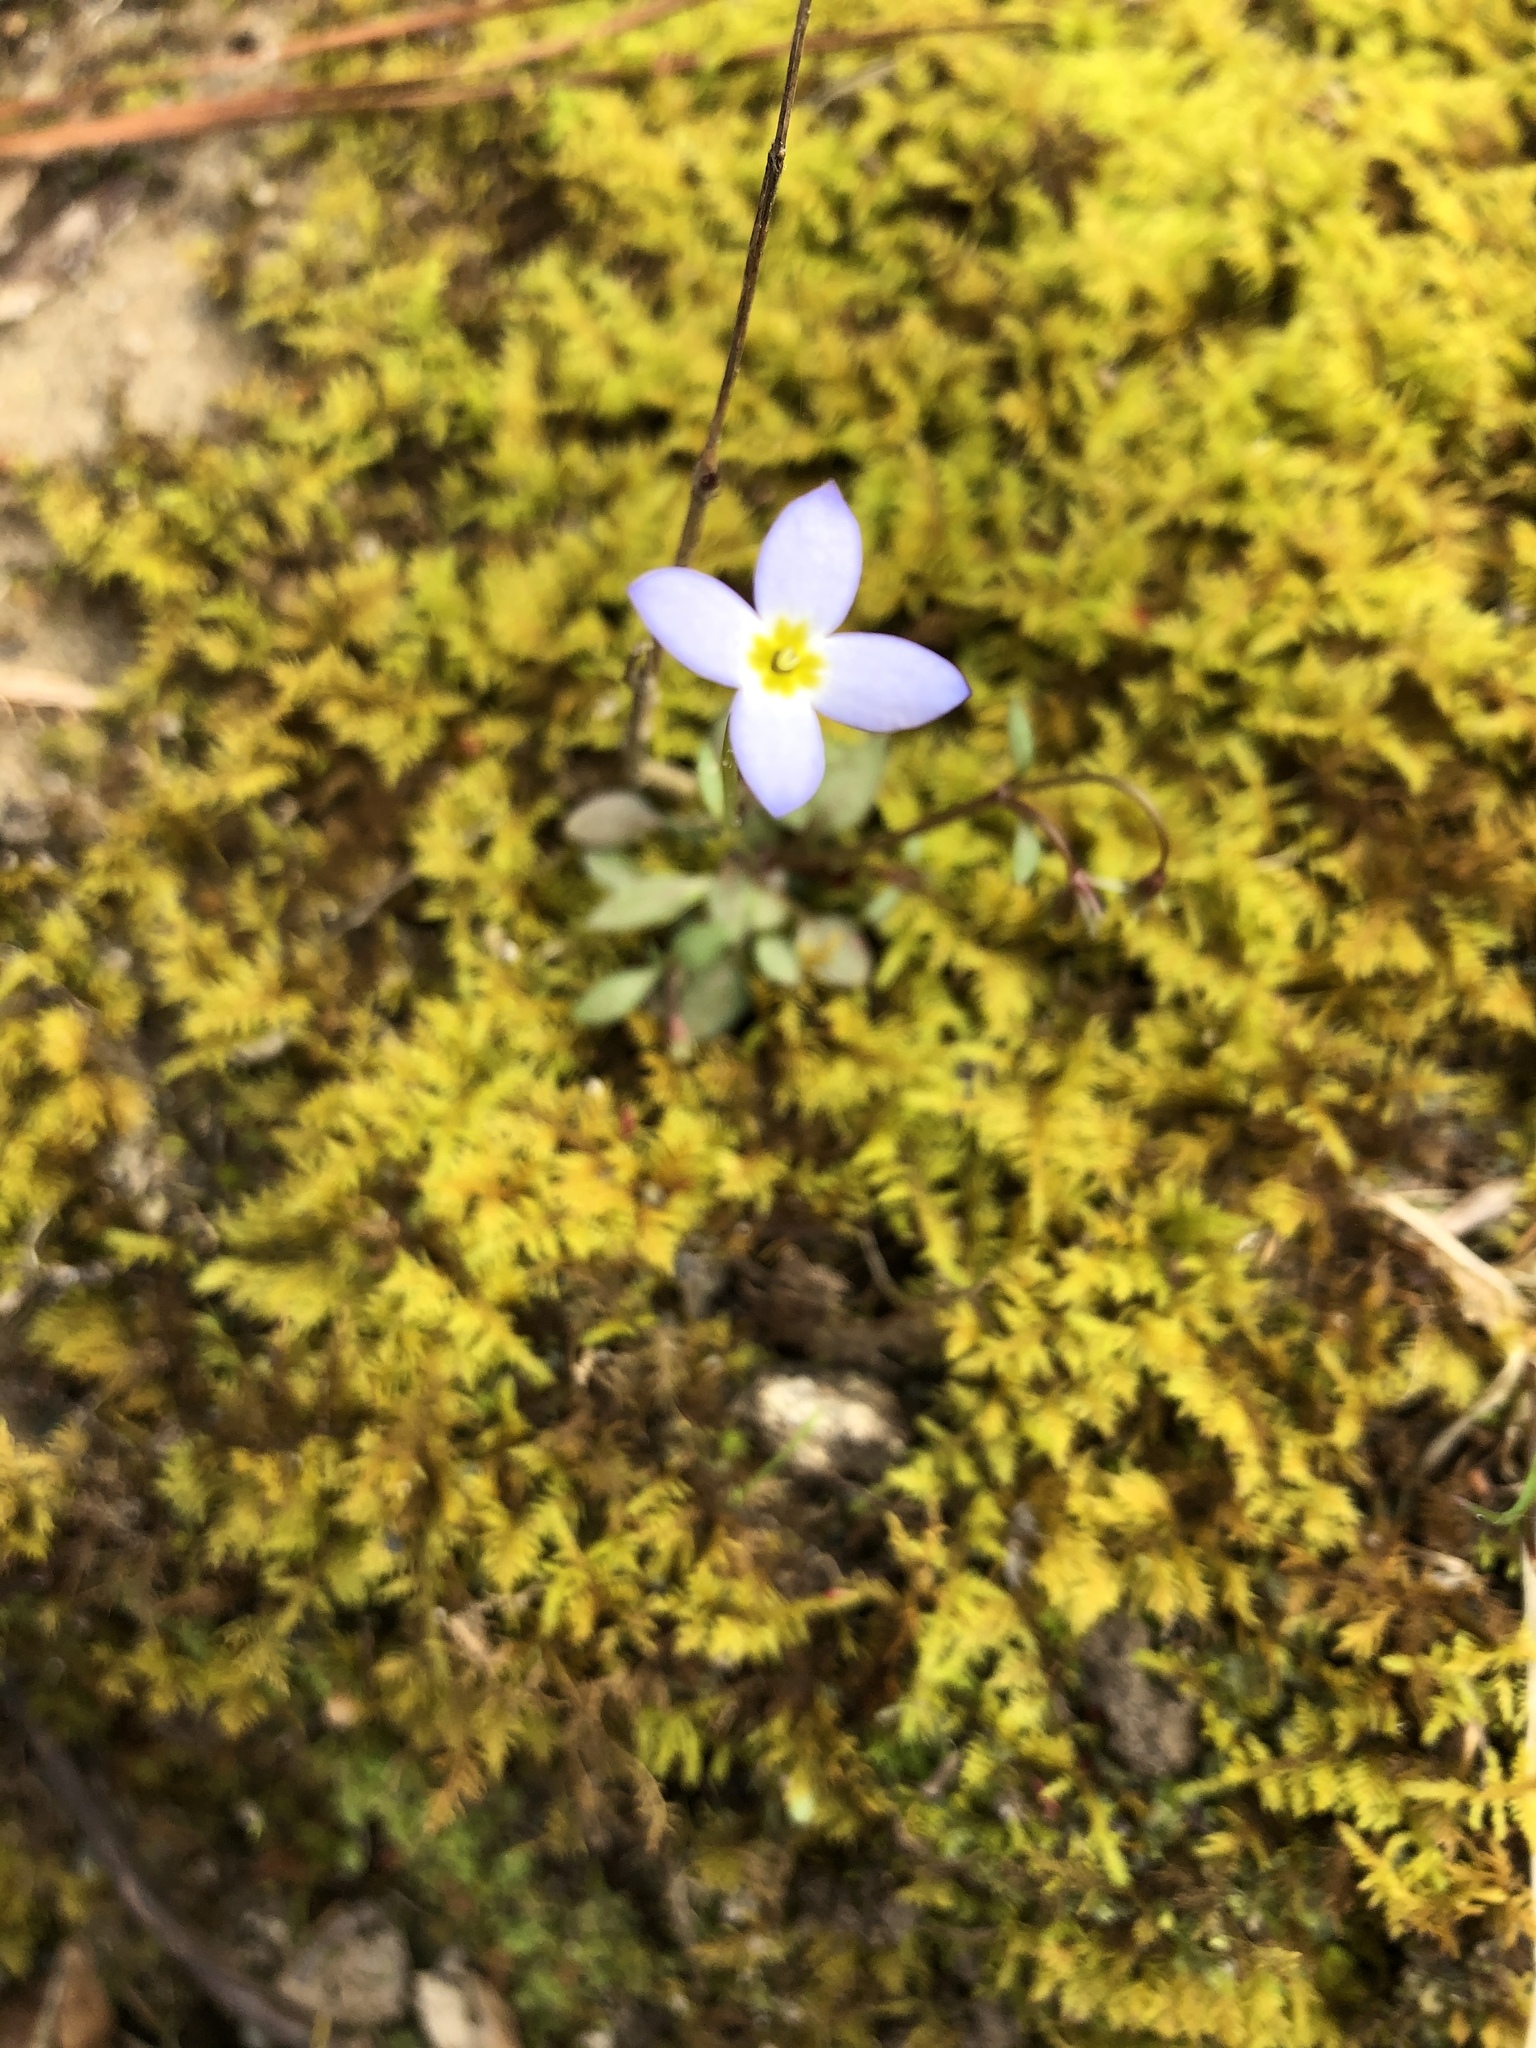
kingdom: Plantae
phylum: Tracheophyta
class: Magnoliopsida
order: Gentianales
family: Rubiaceae
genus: Houstonia
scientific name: Houstonia caerulea
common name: Bluets
